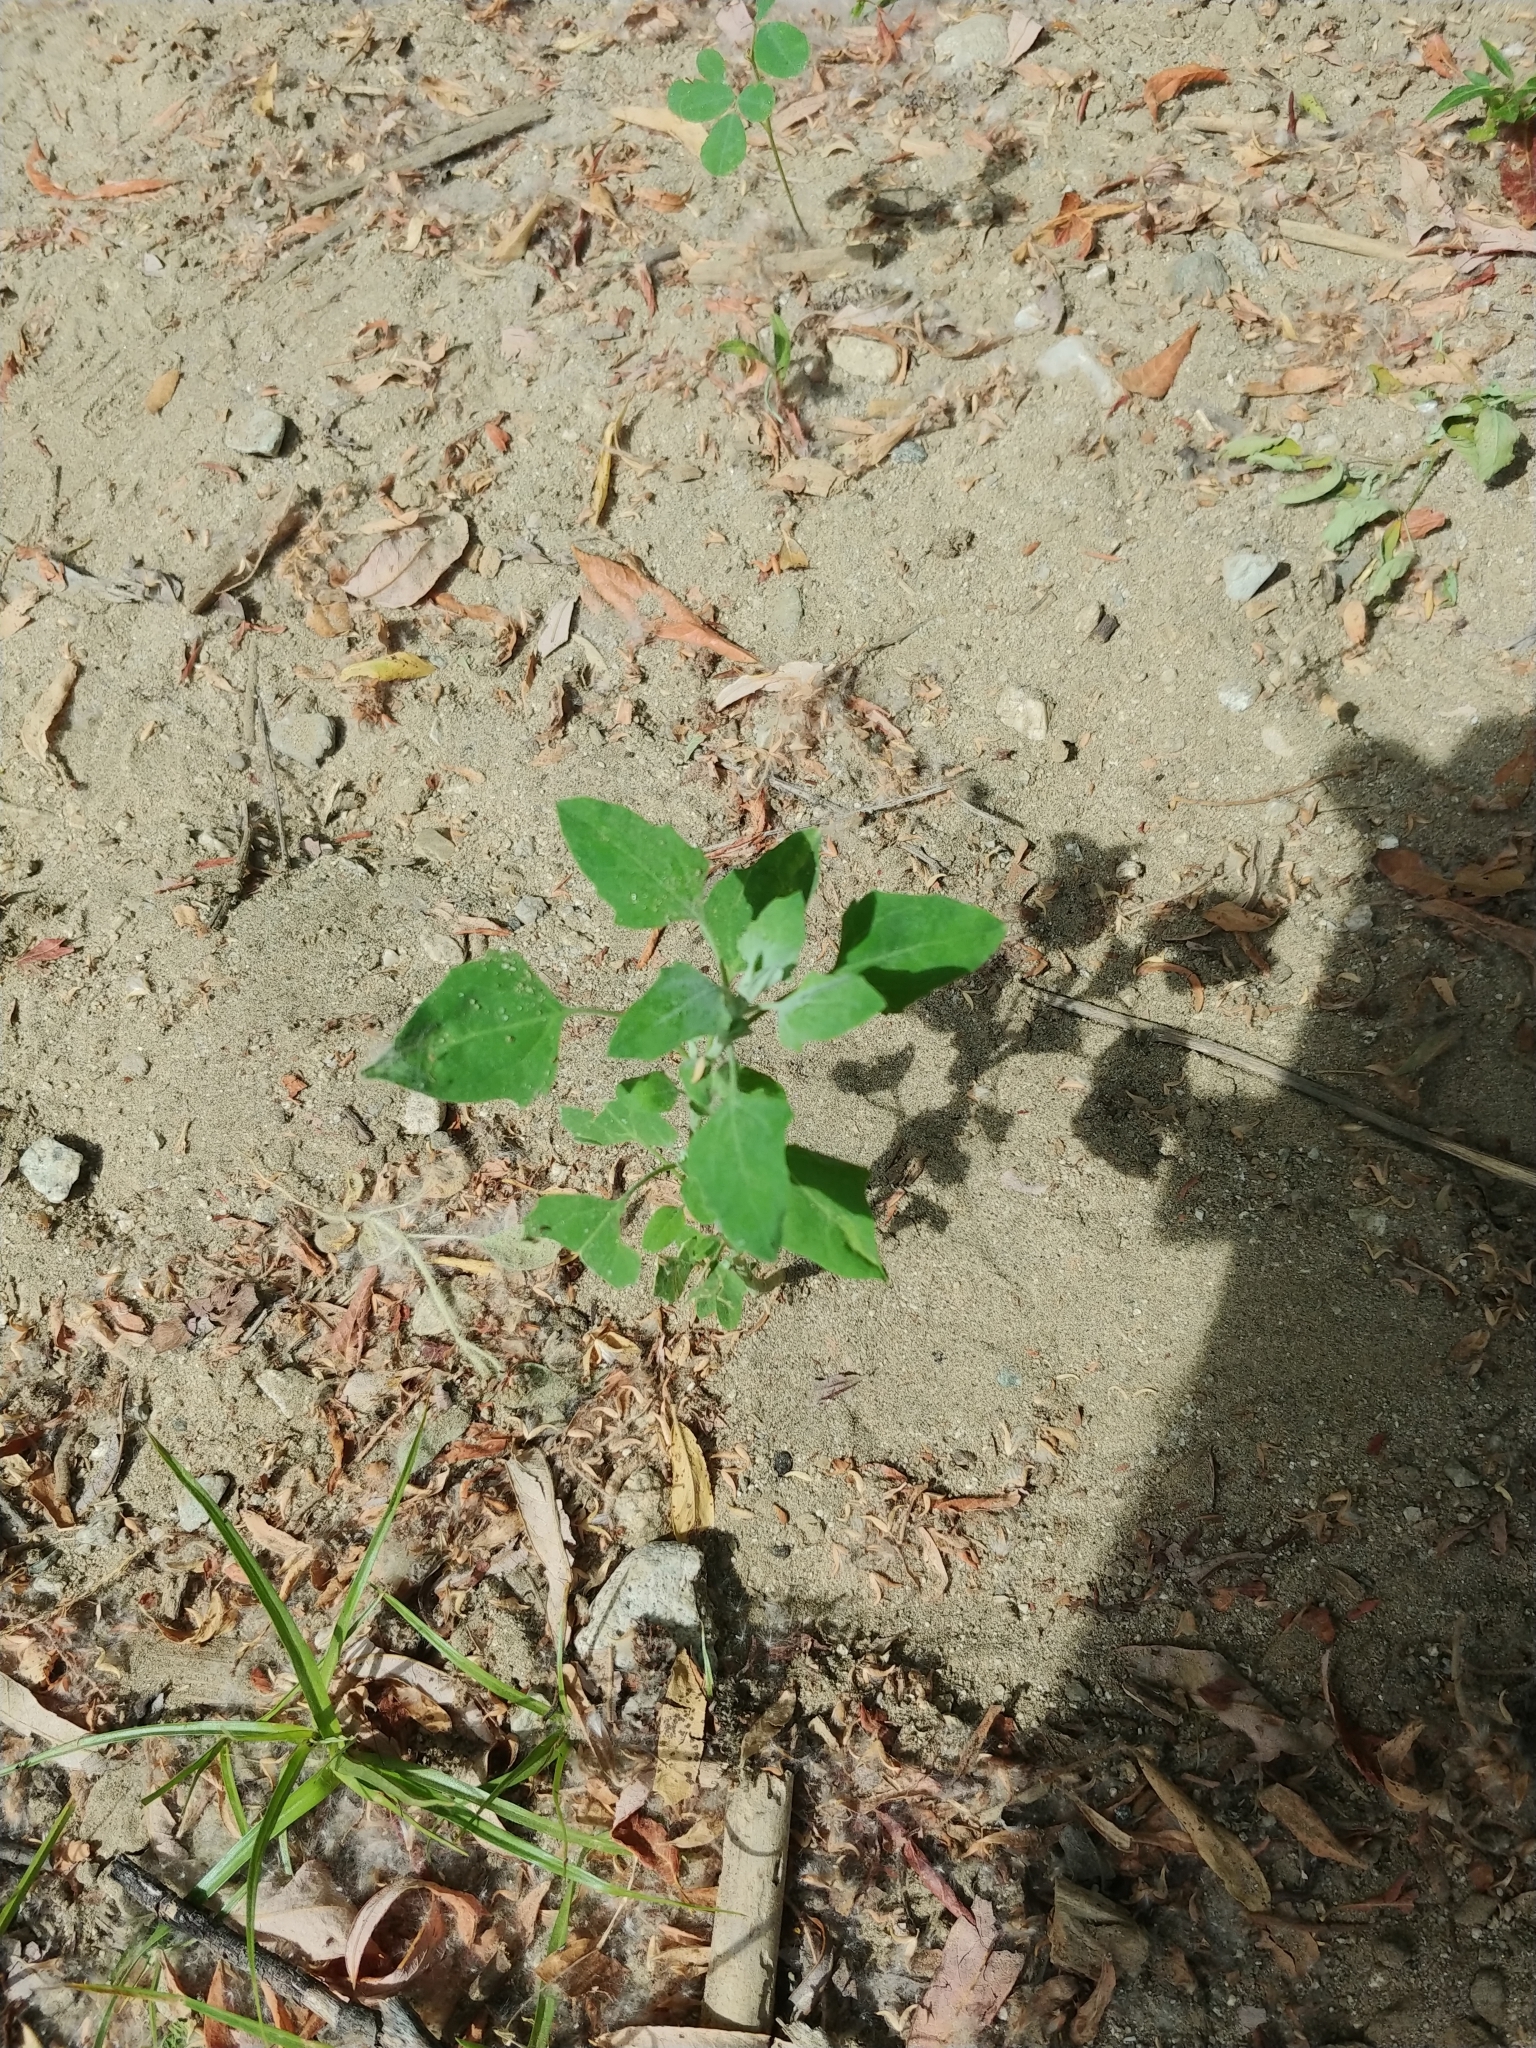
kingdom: Plantae
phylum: Tracheophyta
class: Magnoliopsida
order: Caryophyllales
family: Amaranthaceae
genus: Chenopodium
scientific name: Chenopodium album
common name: Fat-hen
